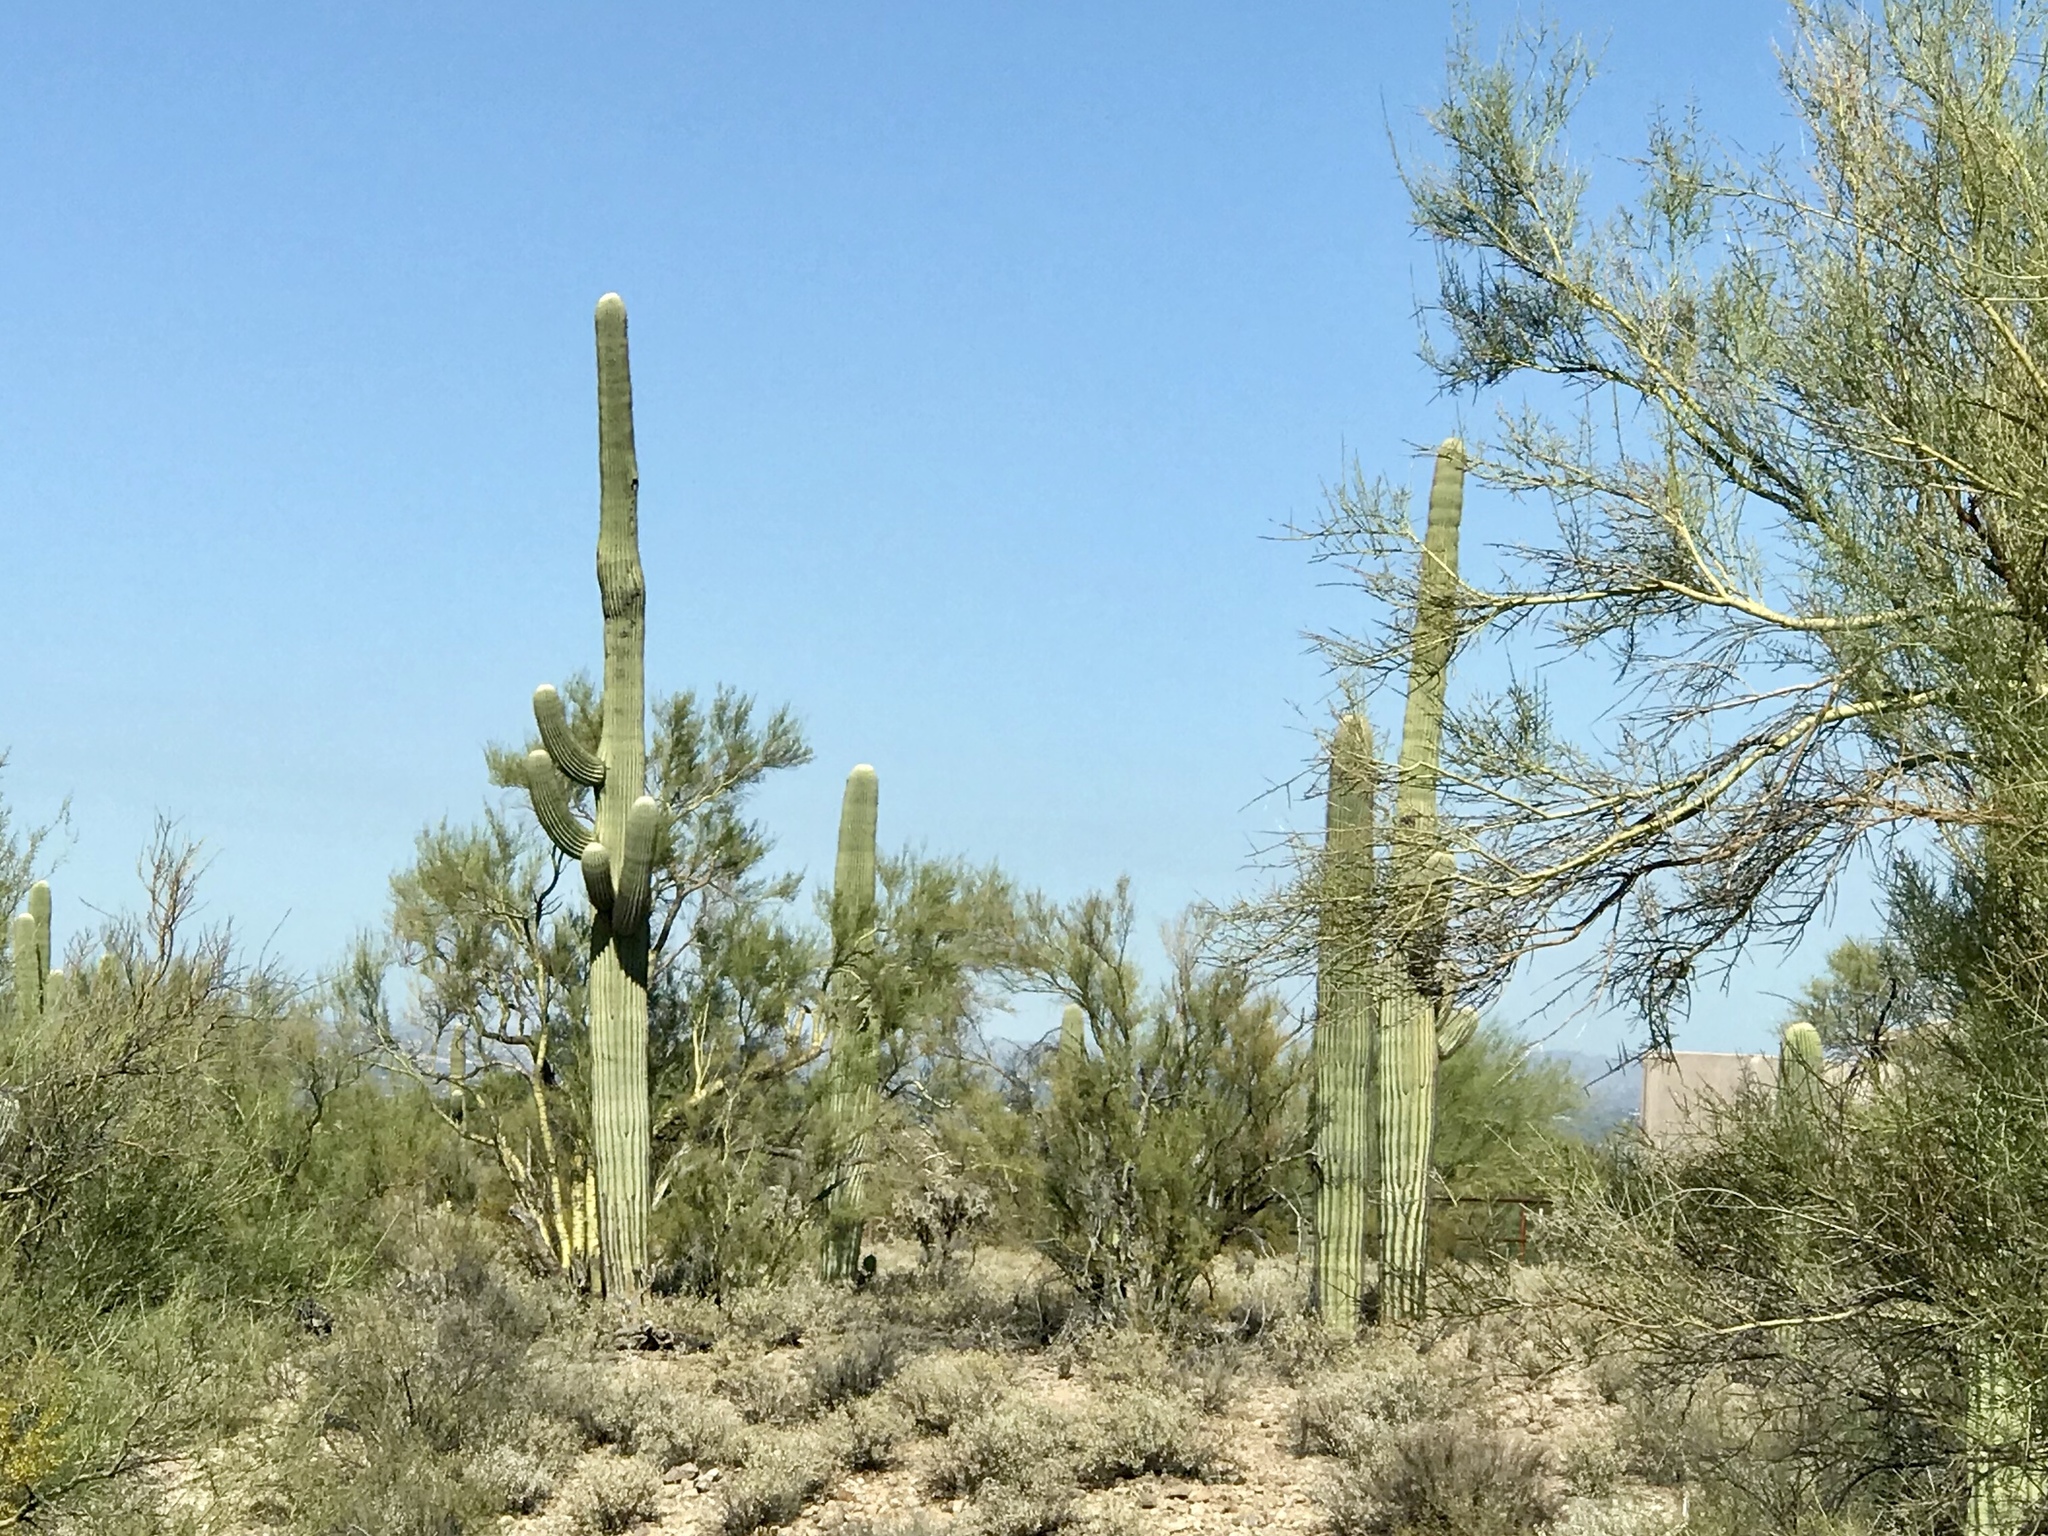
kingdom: Plantae
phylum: Tracheophyta
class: Magnoliopsida
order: Caryophyllales
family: Cactaceae
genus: Carnegiea
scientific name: Carnegiea gigantea
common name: Saguaro
